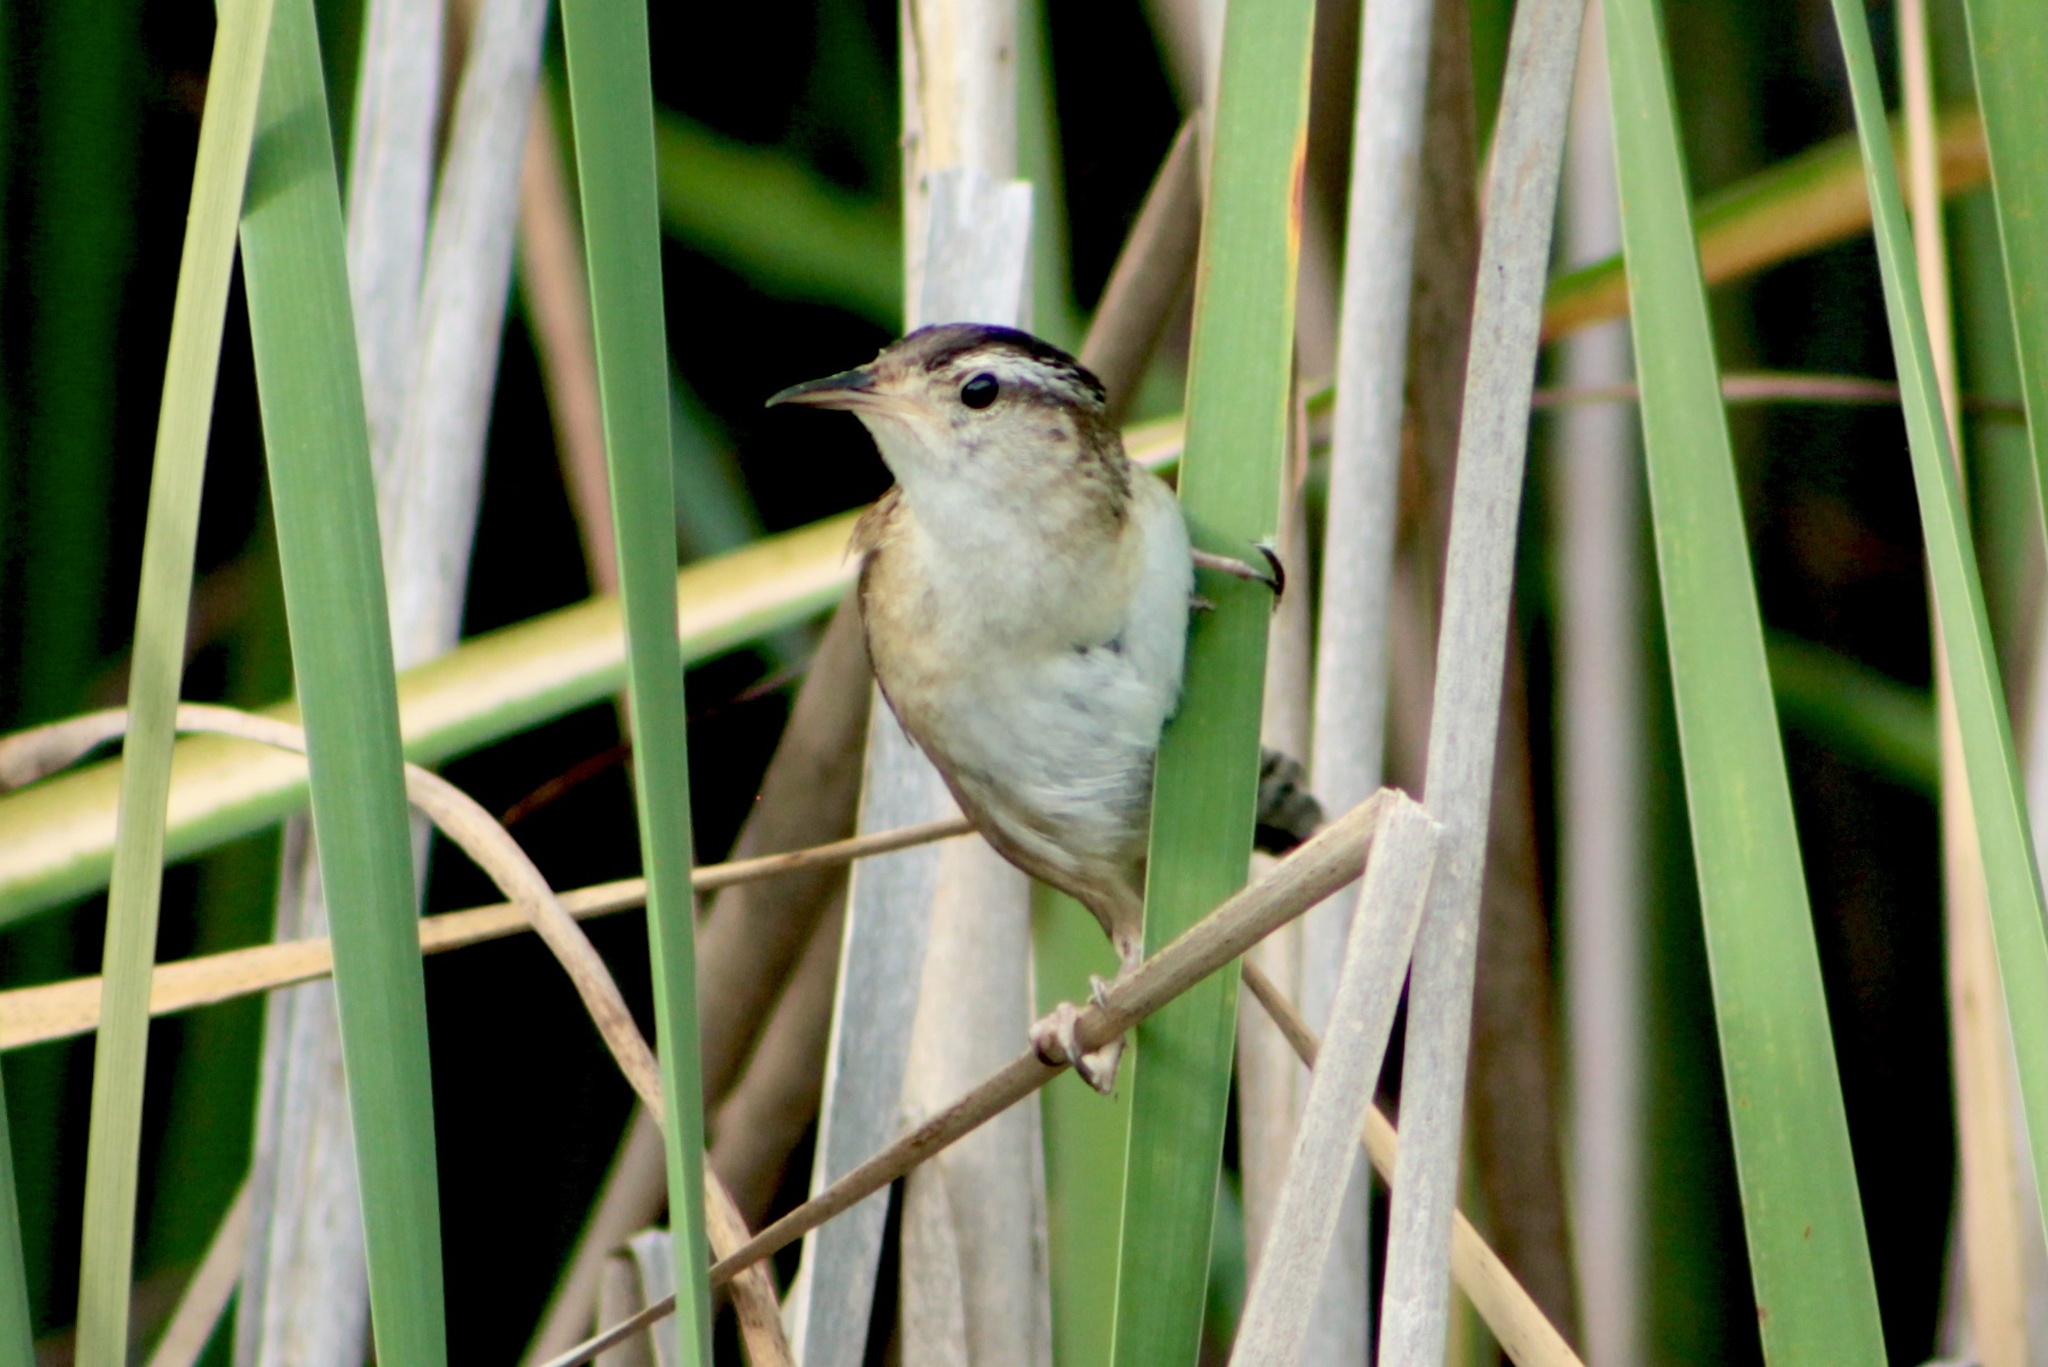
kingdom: Animalia
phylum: Chordata
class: Aves
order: Passeriformes
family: Troglodytidae
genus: Cistothorus
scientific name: Cistothorus palustris
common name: Marsh wren
